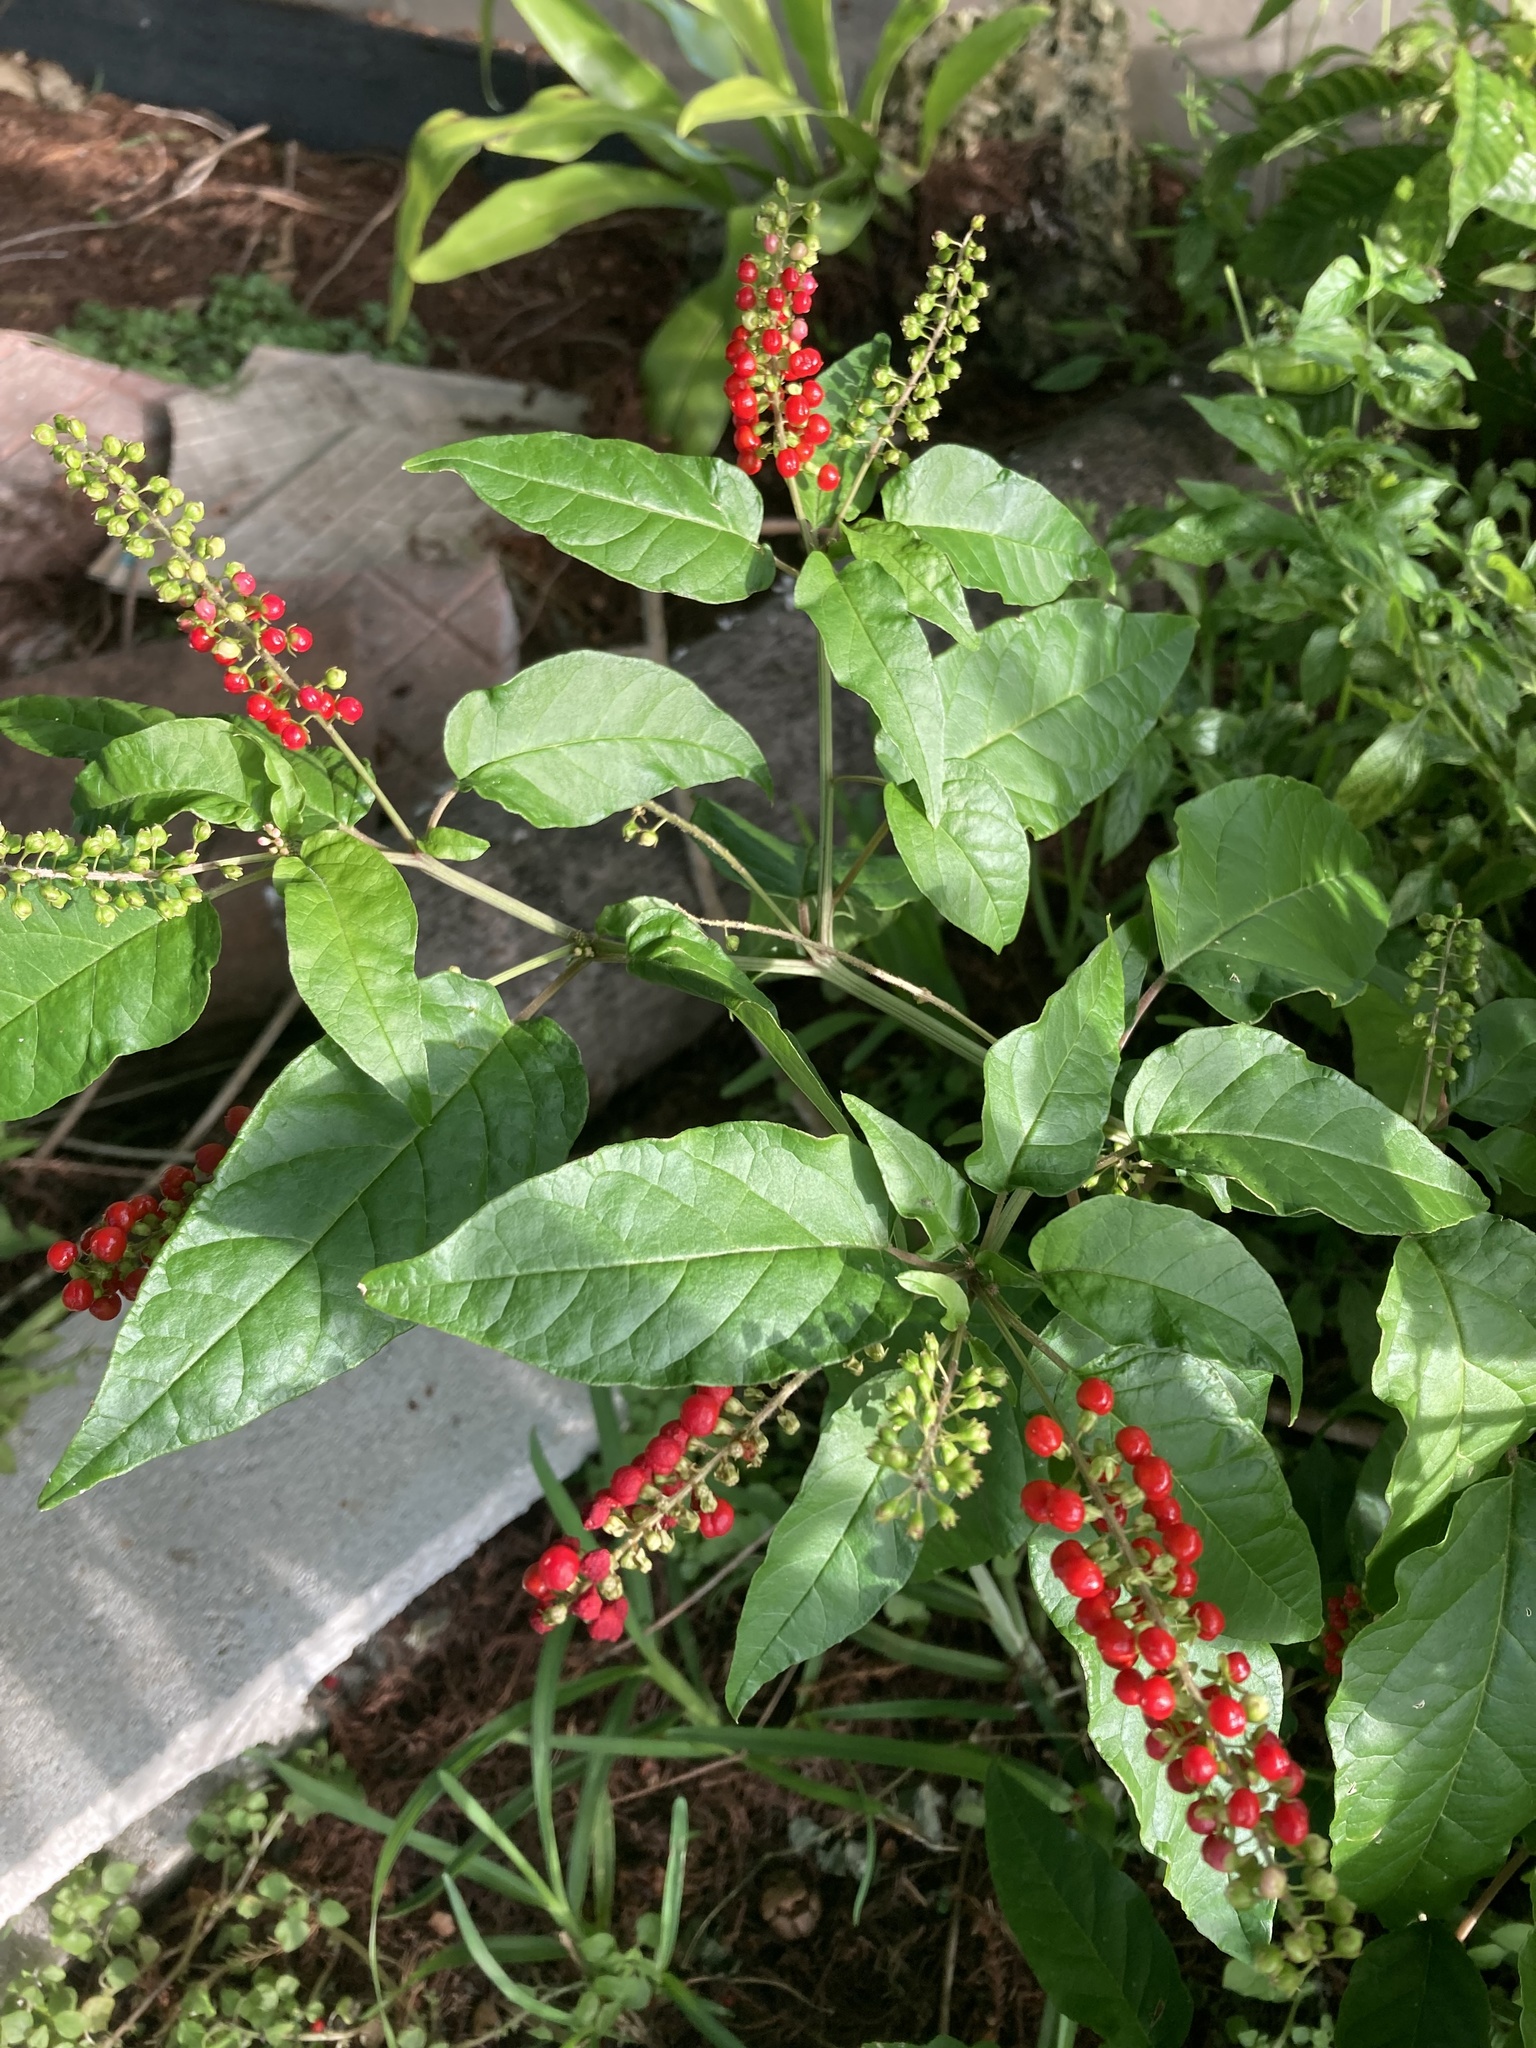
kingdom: Plantae
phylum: Tracheophyta
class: Magnoliopsida
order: Caryophyllales
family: Phytolaccaceae
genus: Rivina
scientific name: Rivina humilis
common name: Rougeplant
